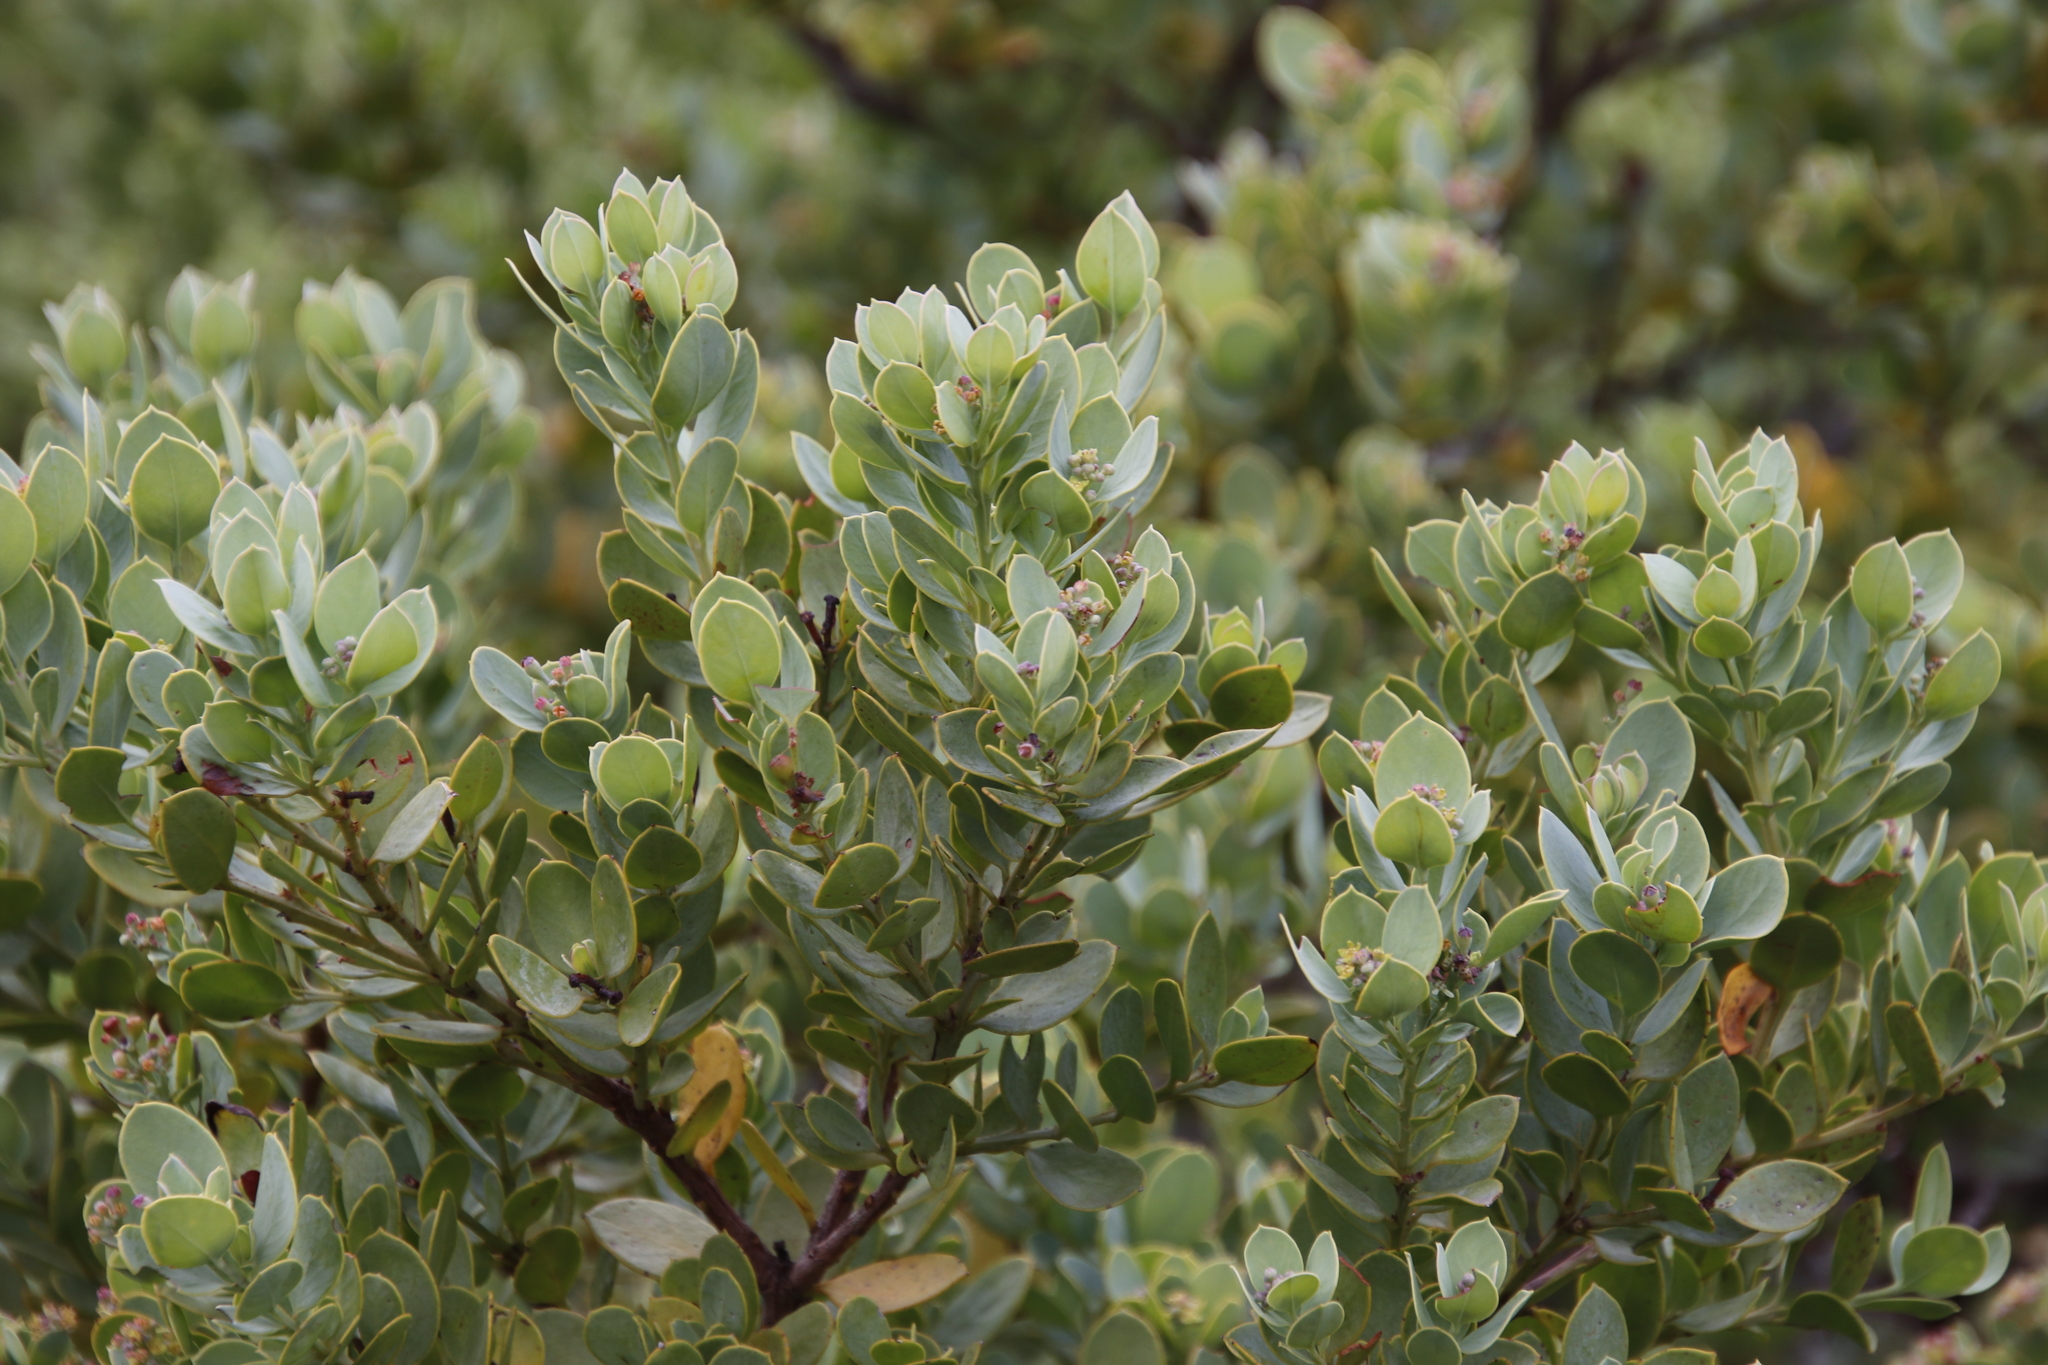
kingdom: Plantae
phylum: Tracheophyta
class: Magnoliopsida
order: Santalales
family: Santalaceae
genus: Osyris
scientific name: Osyris compressa
